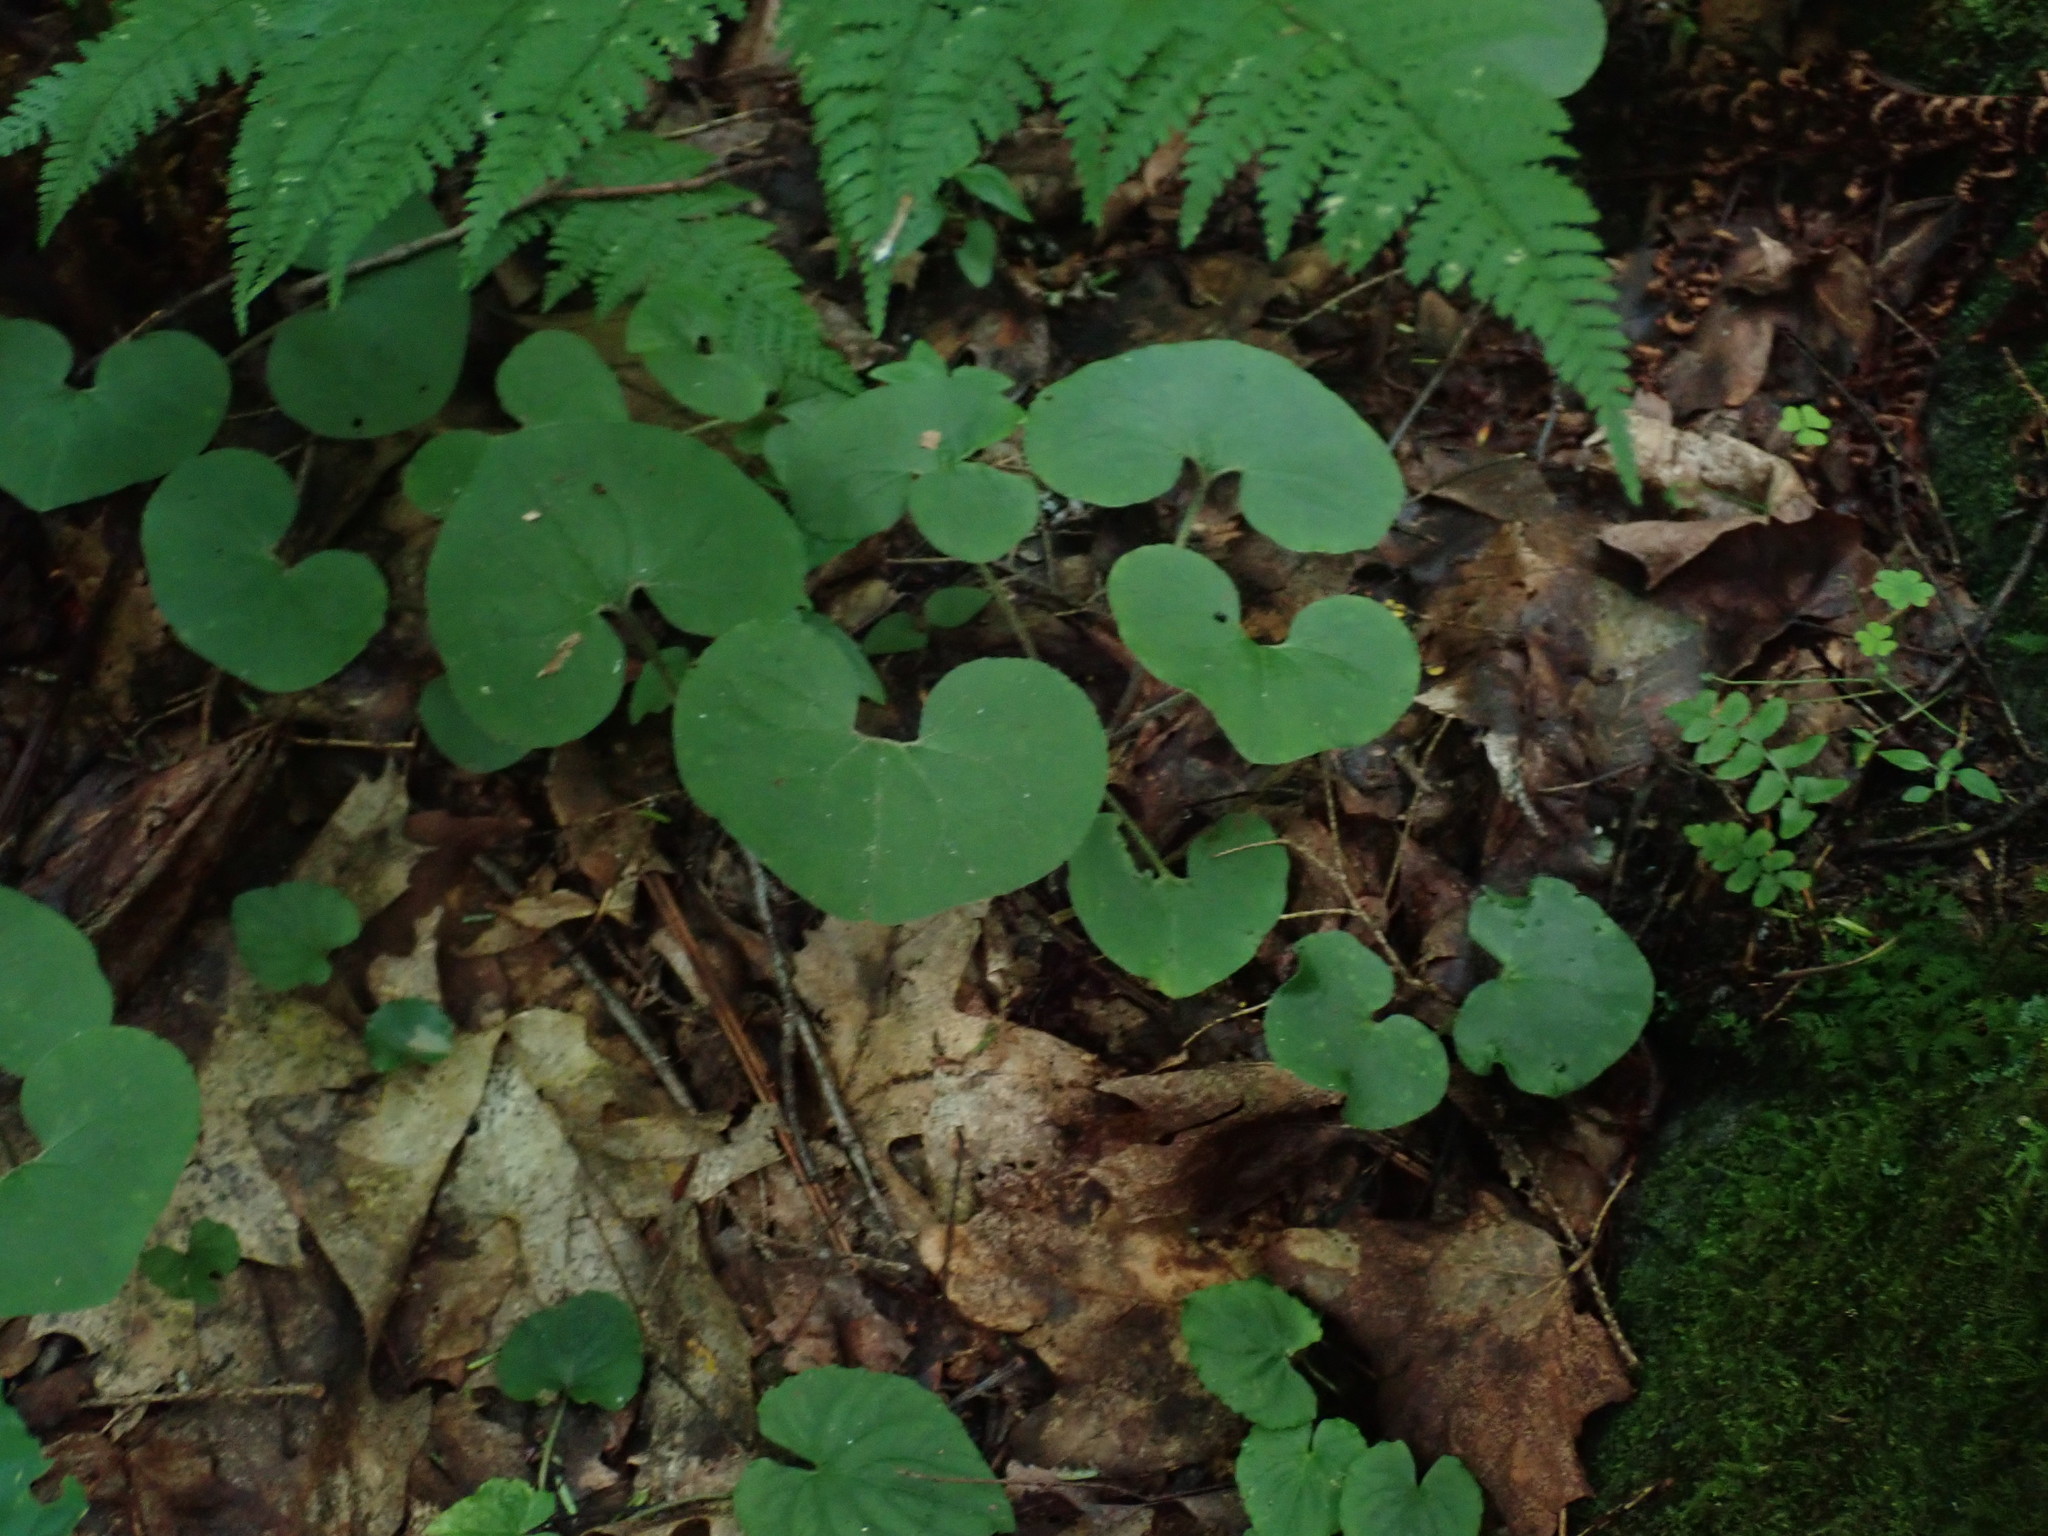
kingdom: Plantae
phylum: Tracheophyta
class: Magnoliopsida
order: Piperales
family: Aristolochiaceae
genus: Asarum
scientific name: Asarum canadense
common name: Wild ginger
